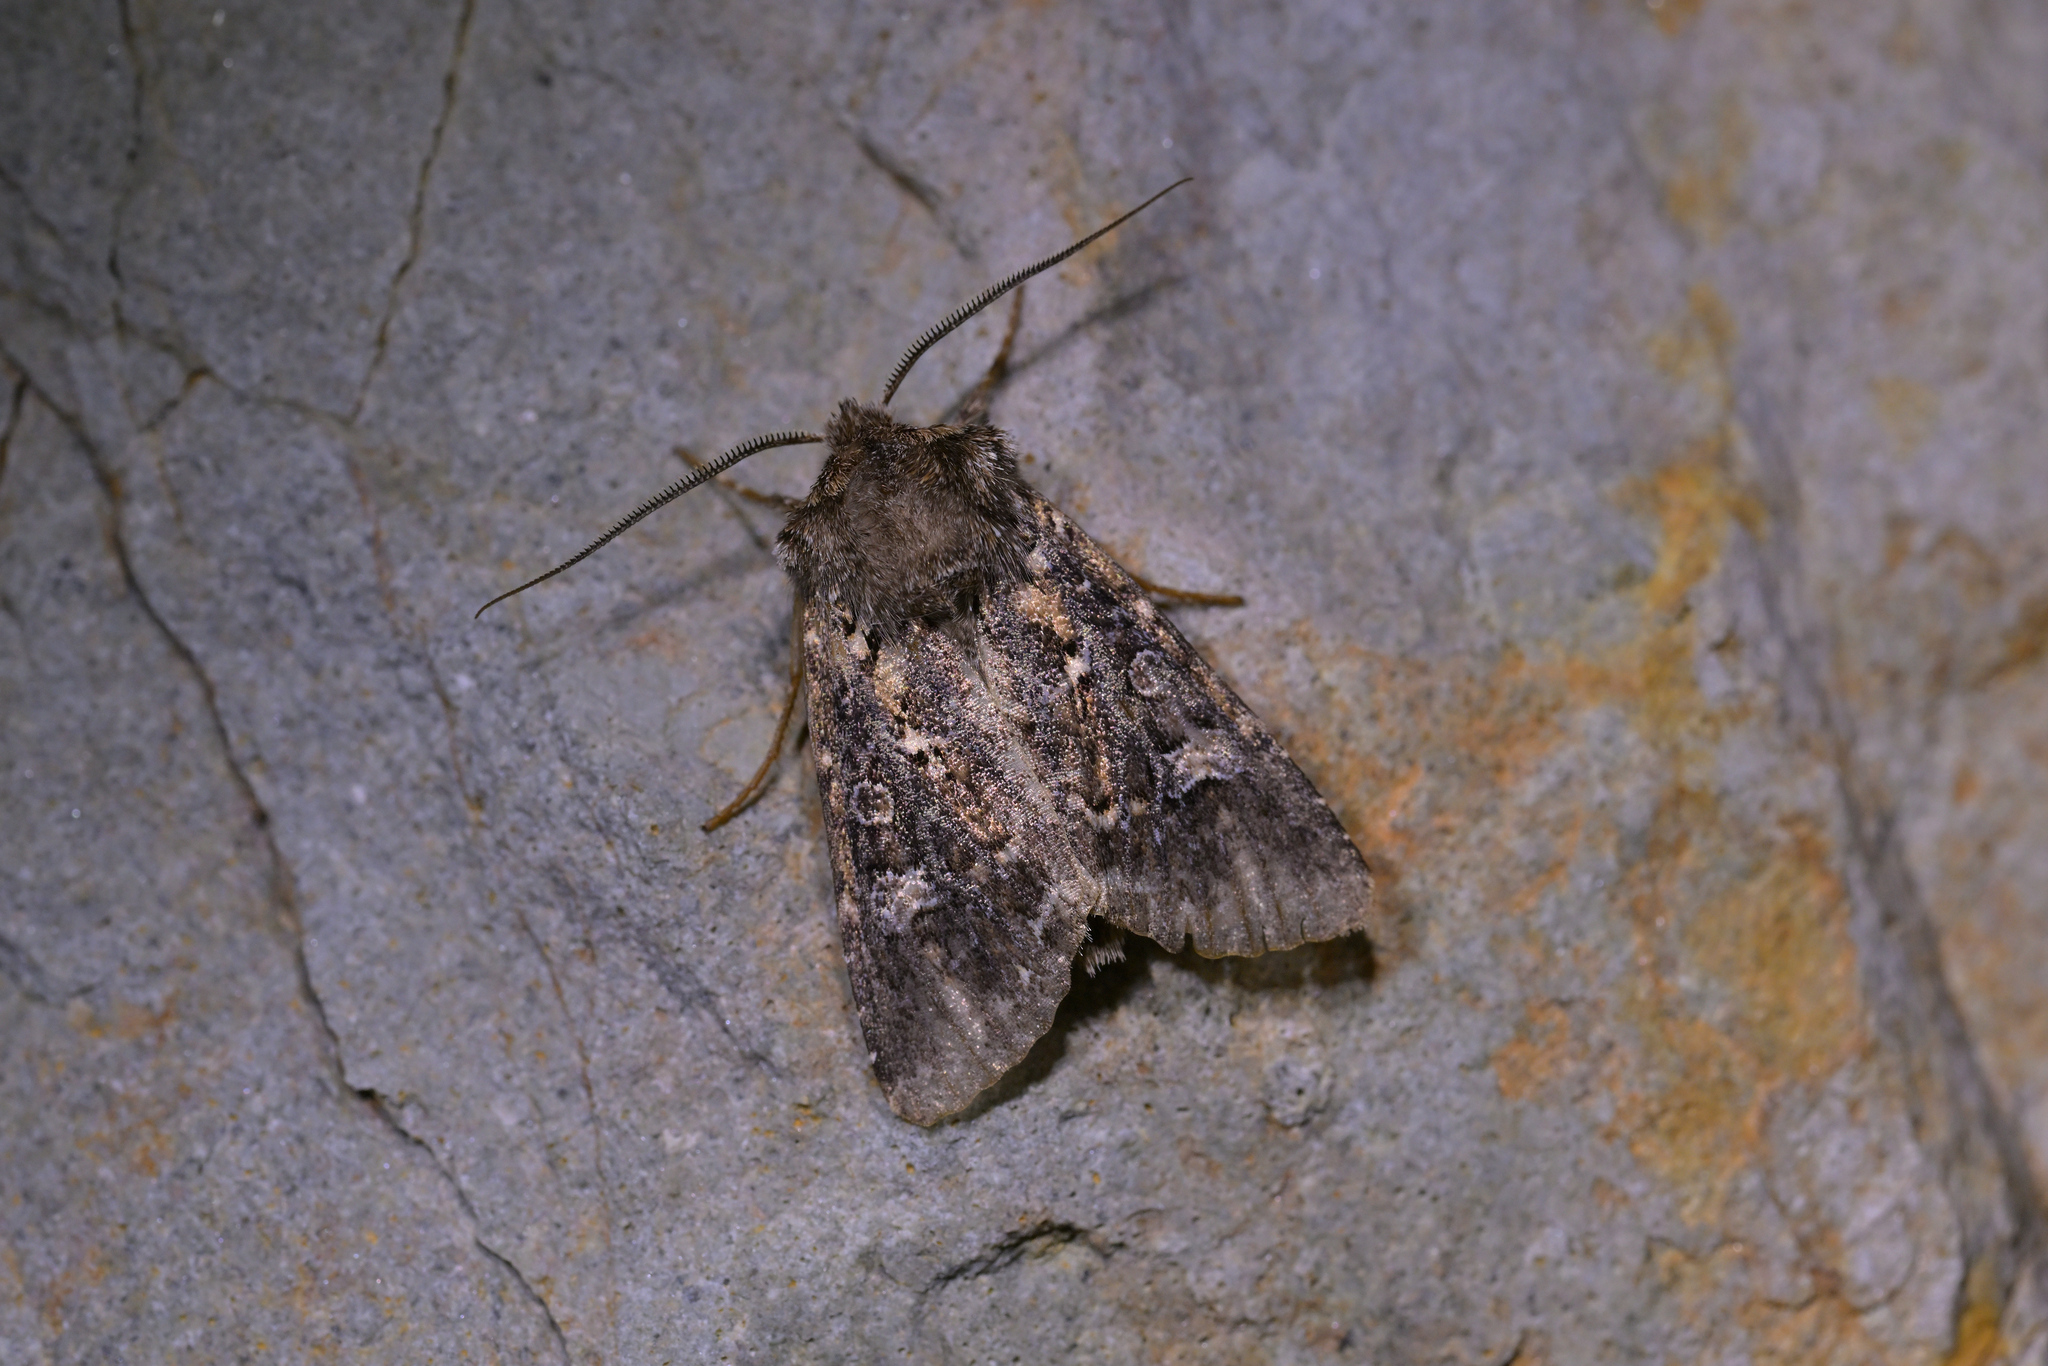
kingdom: Animalia
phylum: Arthropoda
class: Insecta
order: Lepidoptera
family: Noctuidae
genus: Ichneutica
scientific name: Ichneutica lithias
